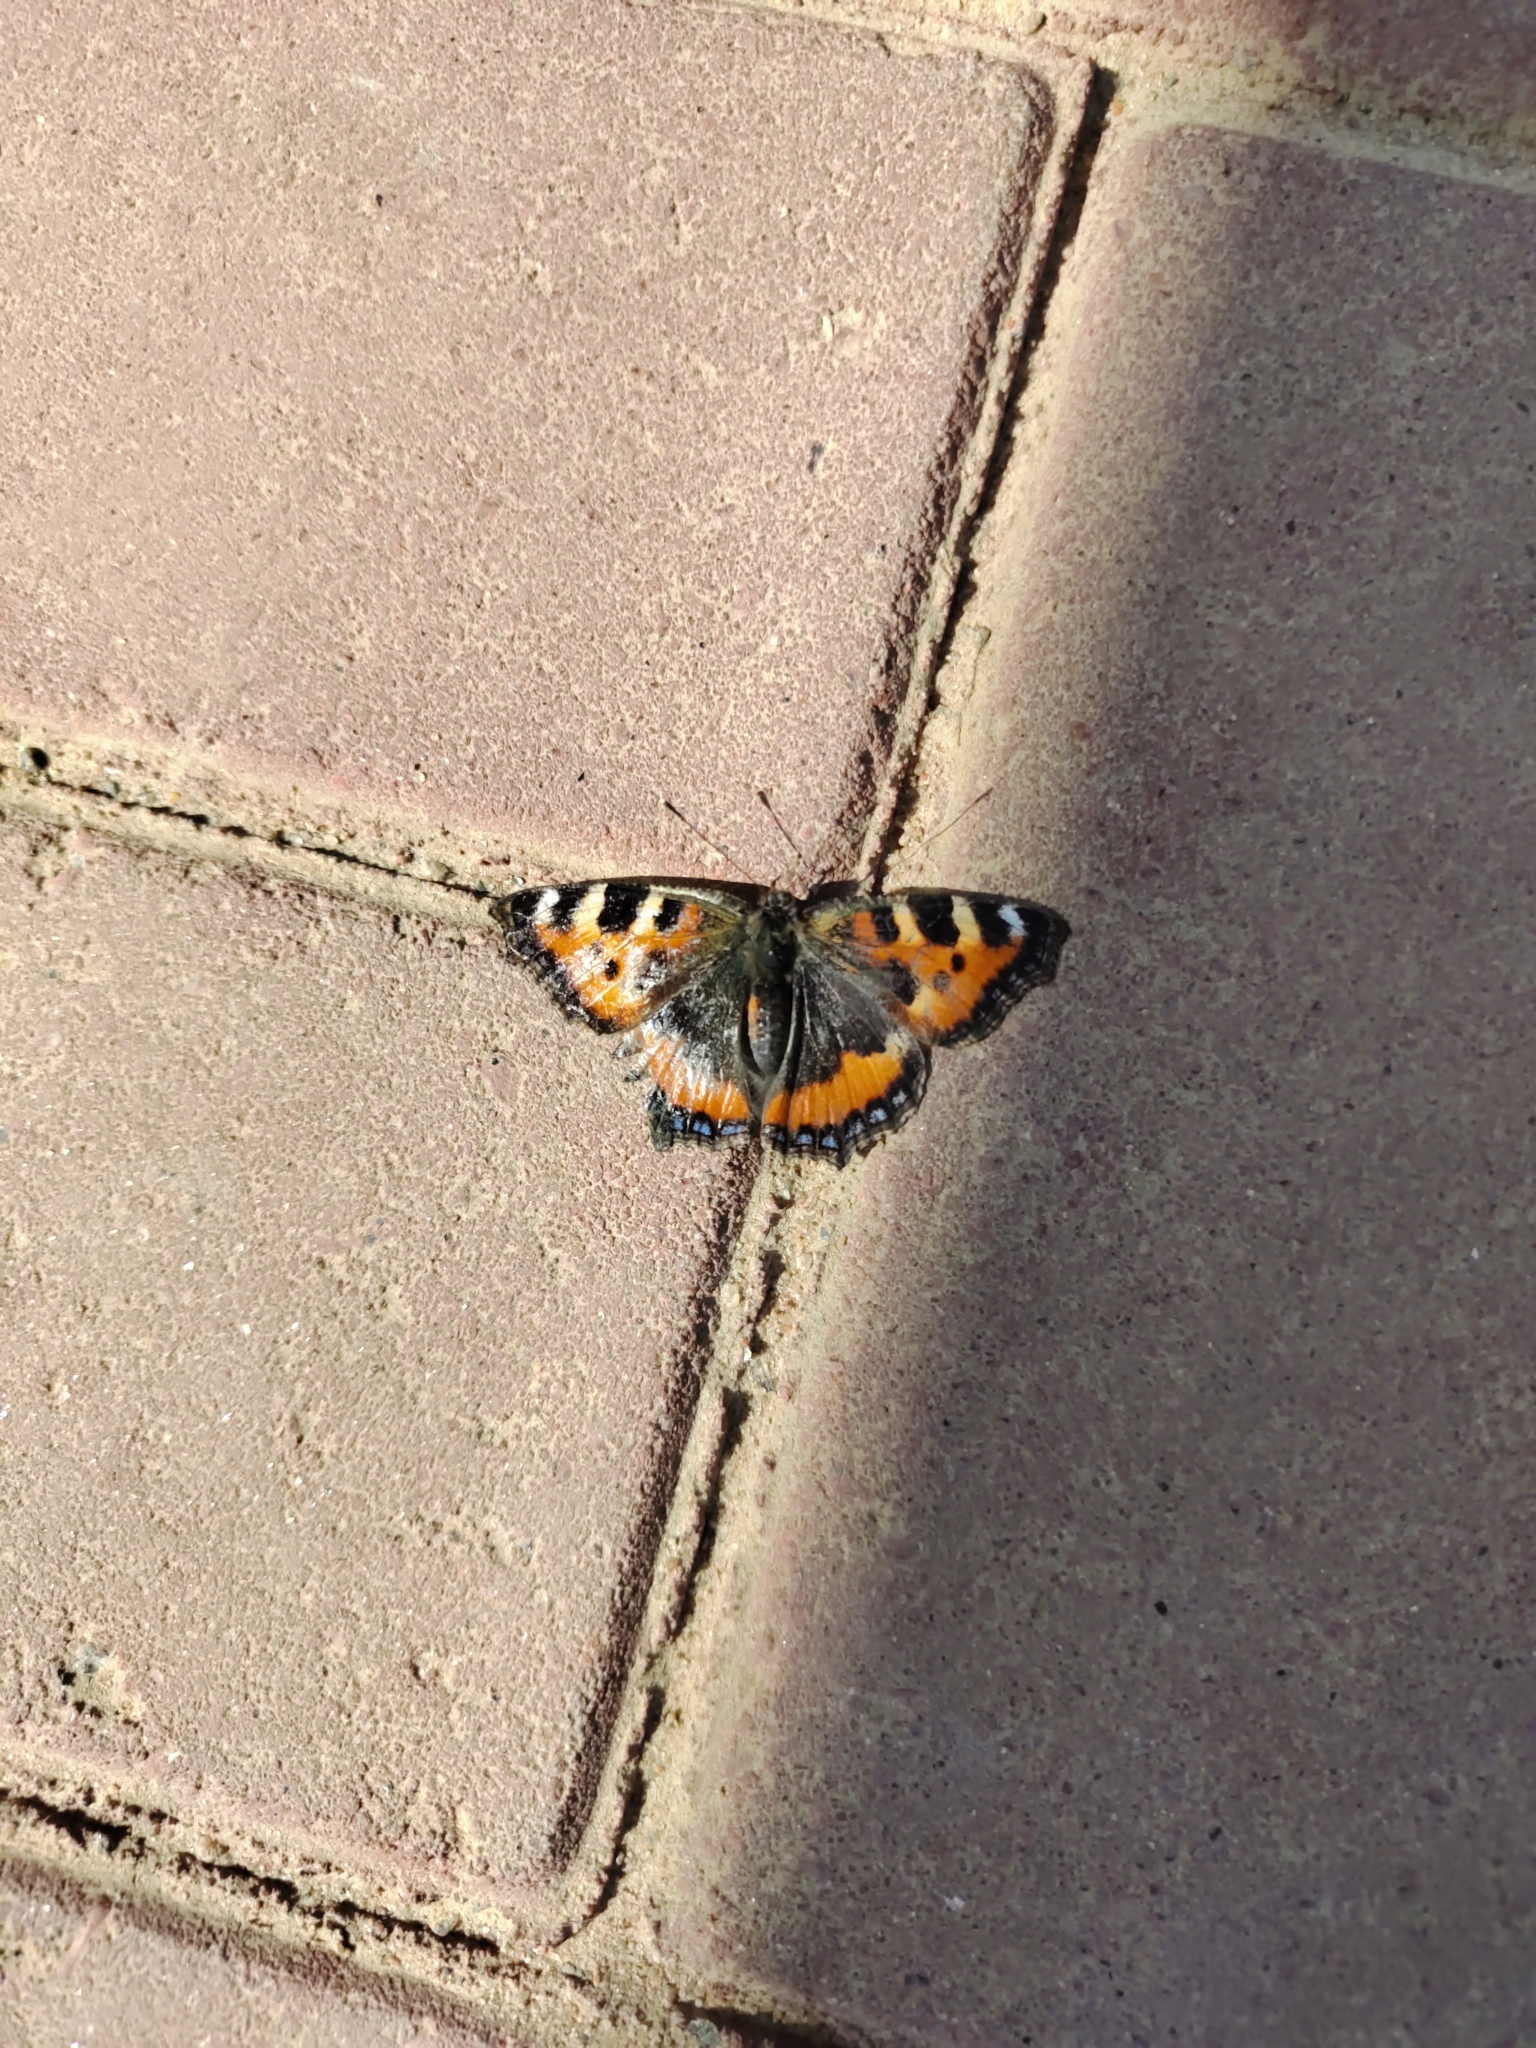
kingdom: Animalia
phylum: Arthropoda
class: Insecta
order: Lepidoptera
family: Nymphalidae
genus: Aglais
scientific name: Aglais urticae
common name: Small tortoiseshell
